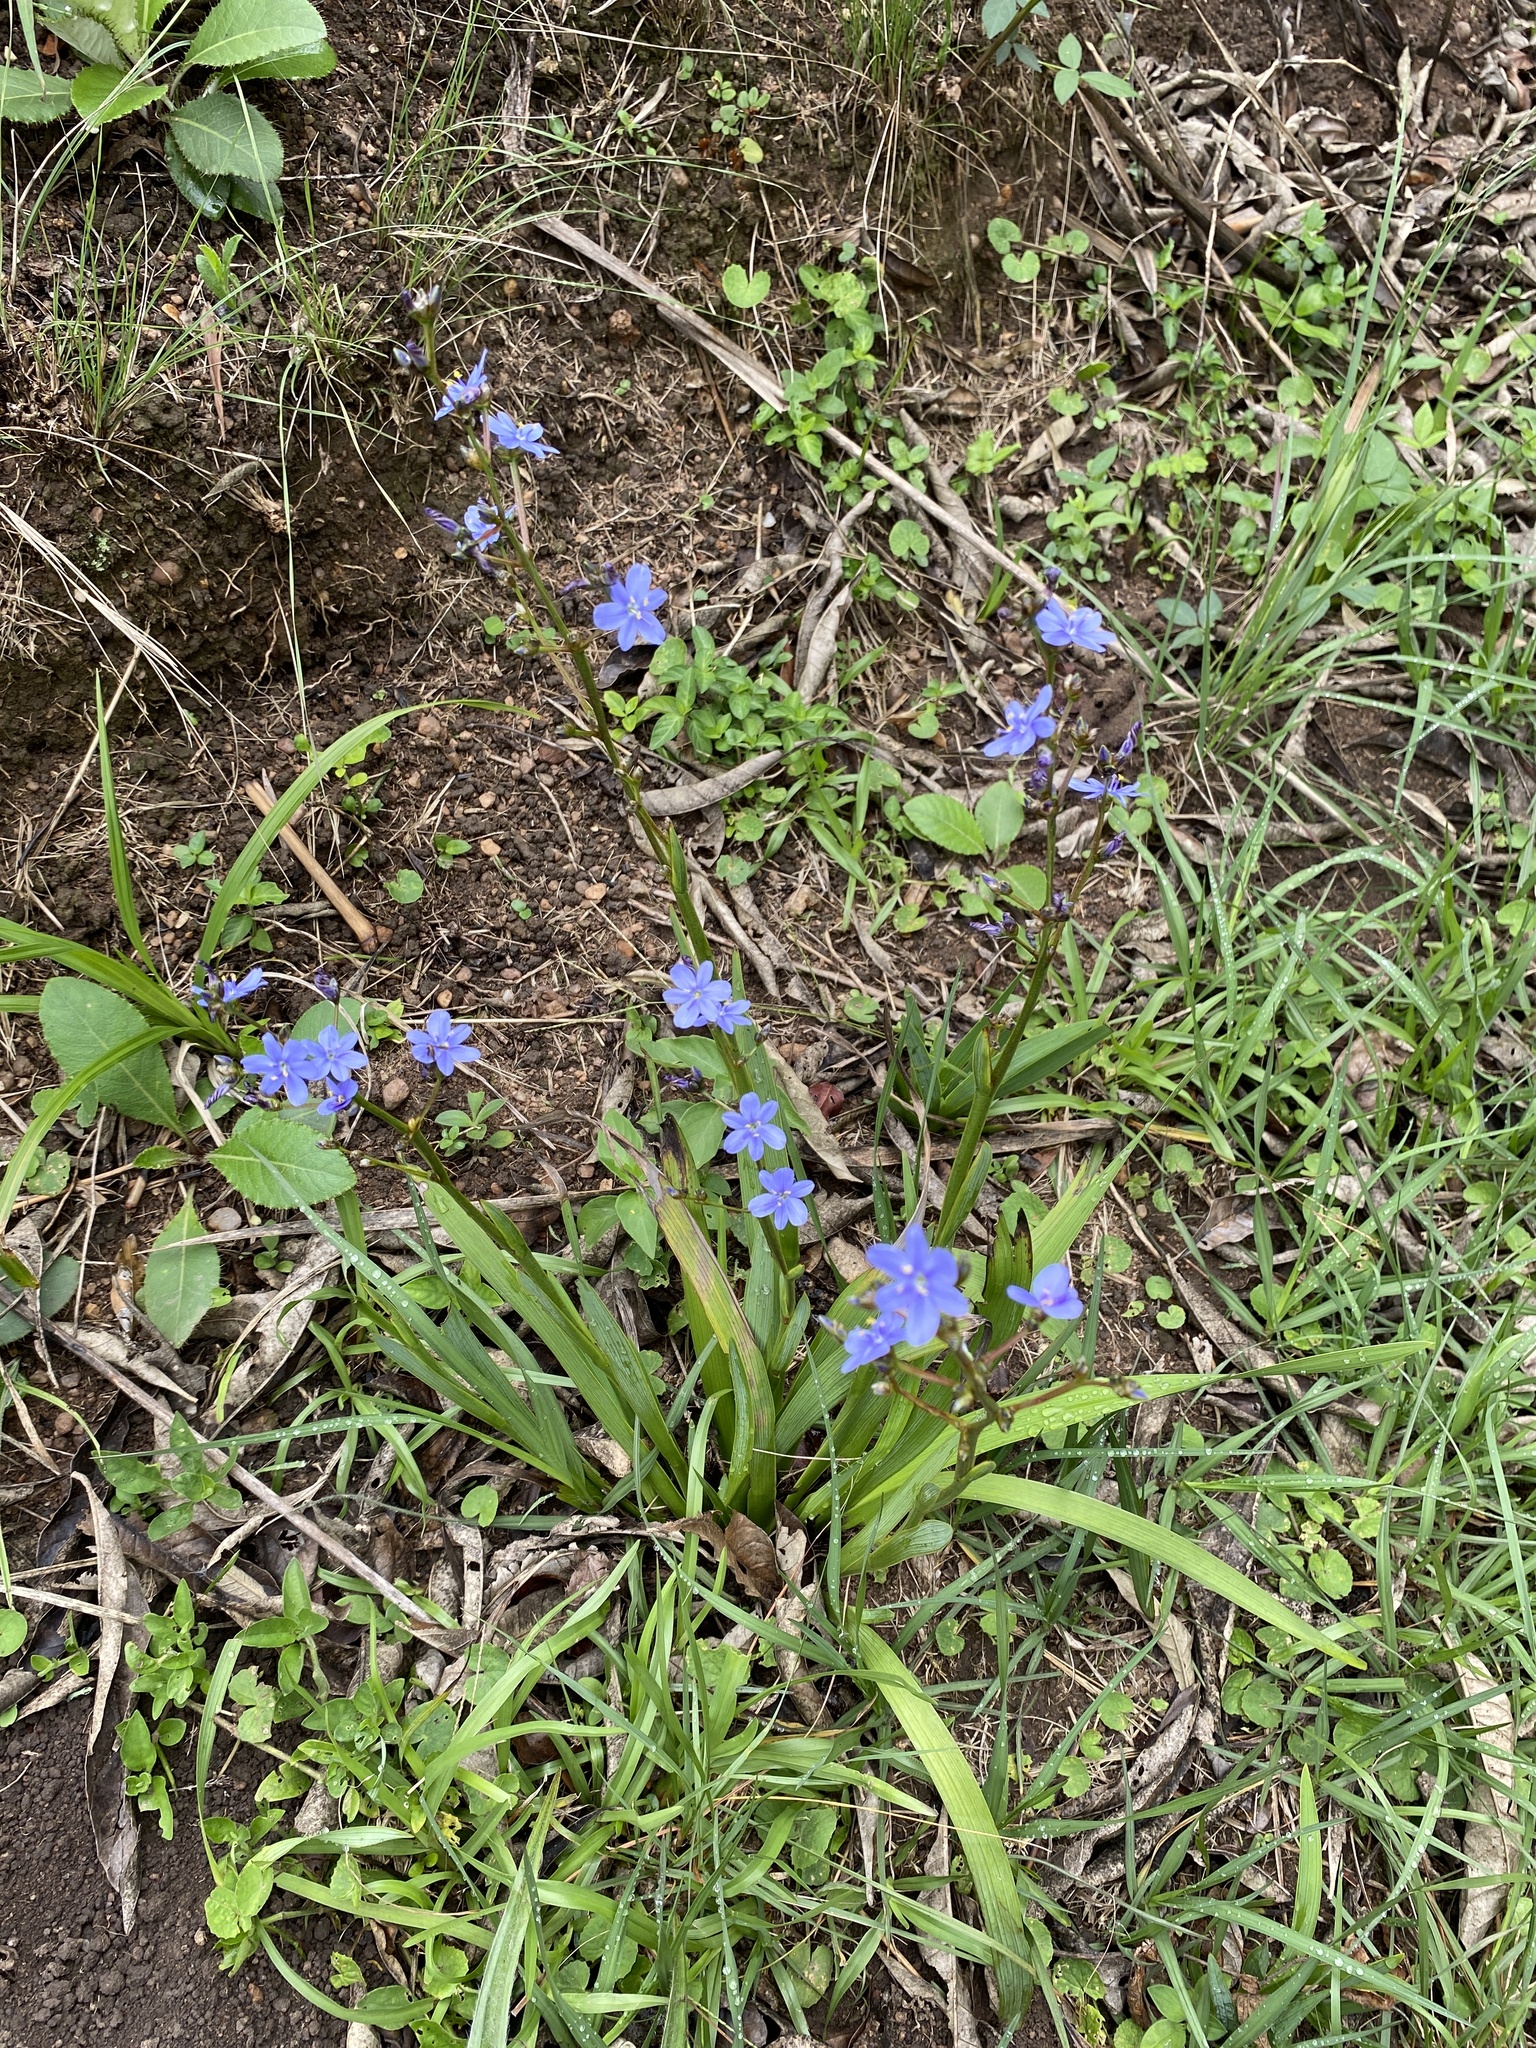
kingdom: Plantae
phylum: Tracheophyta
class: Liliopsida
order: Asparagales
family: Iridaceae
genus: Aristea
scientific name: Aristea ecklonii
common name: Blue corn-lily
